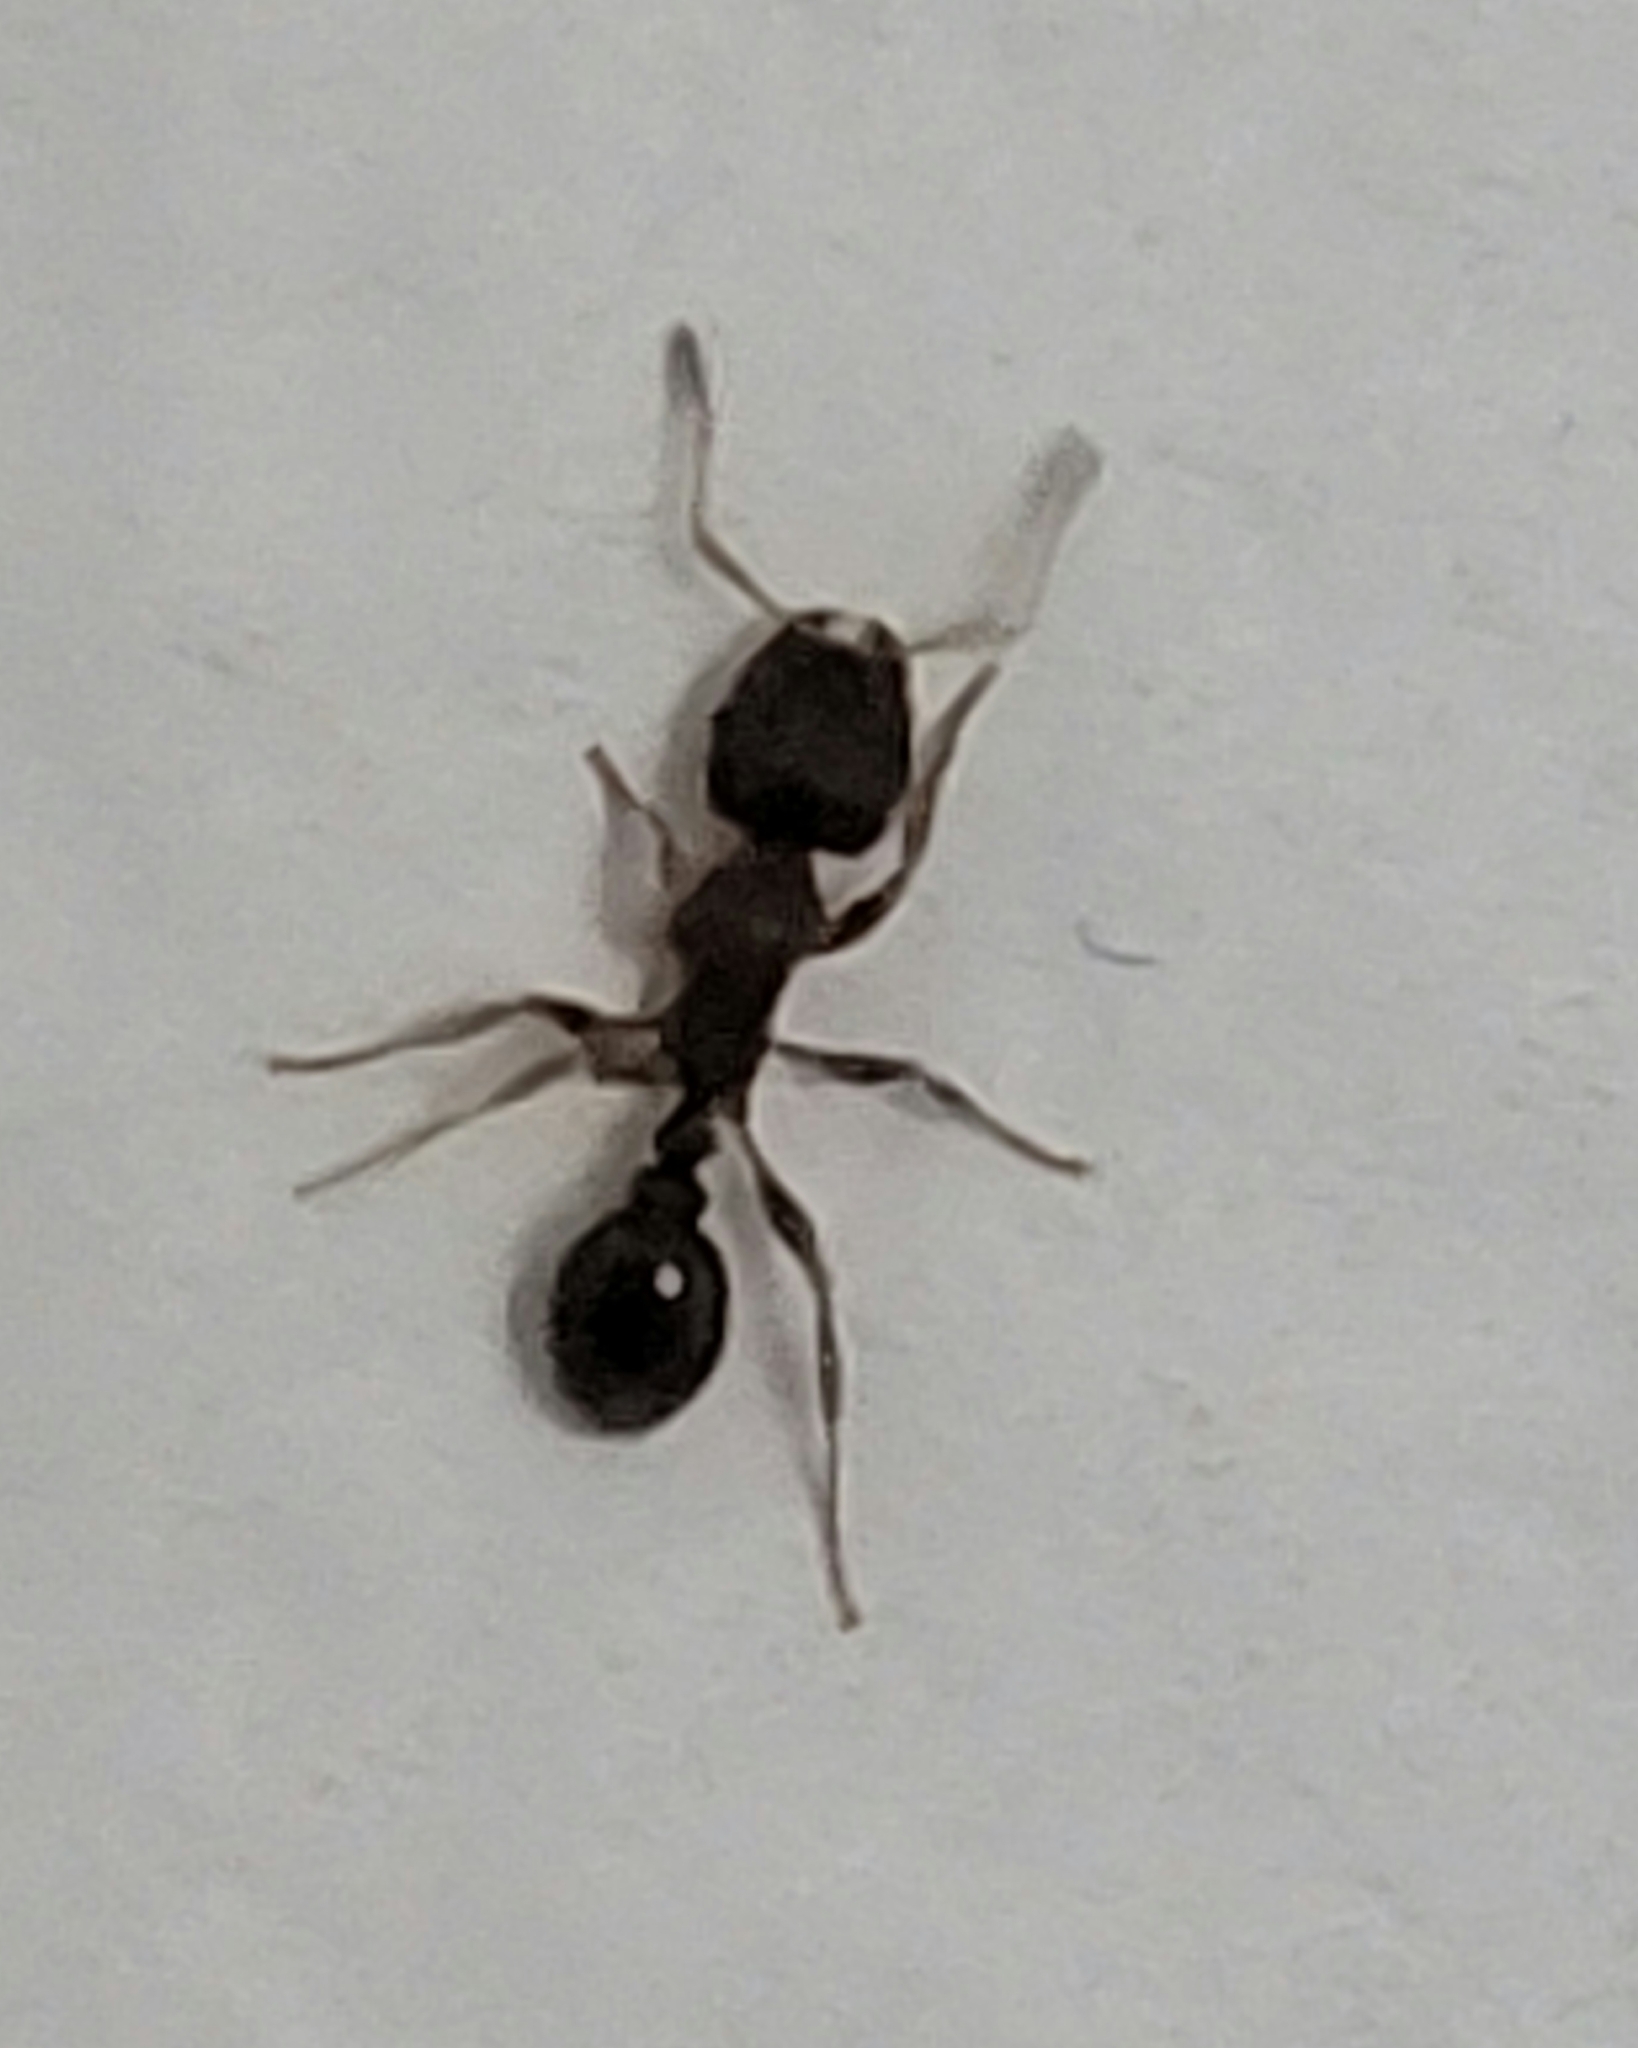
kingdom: Animalia
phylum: Arthropoda
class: Insecta
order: Hymenoptera
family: Formicidae
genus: Tetramorium
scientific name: Tetramorium immigrans
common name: Pavement ant
